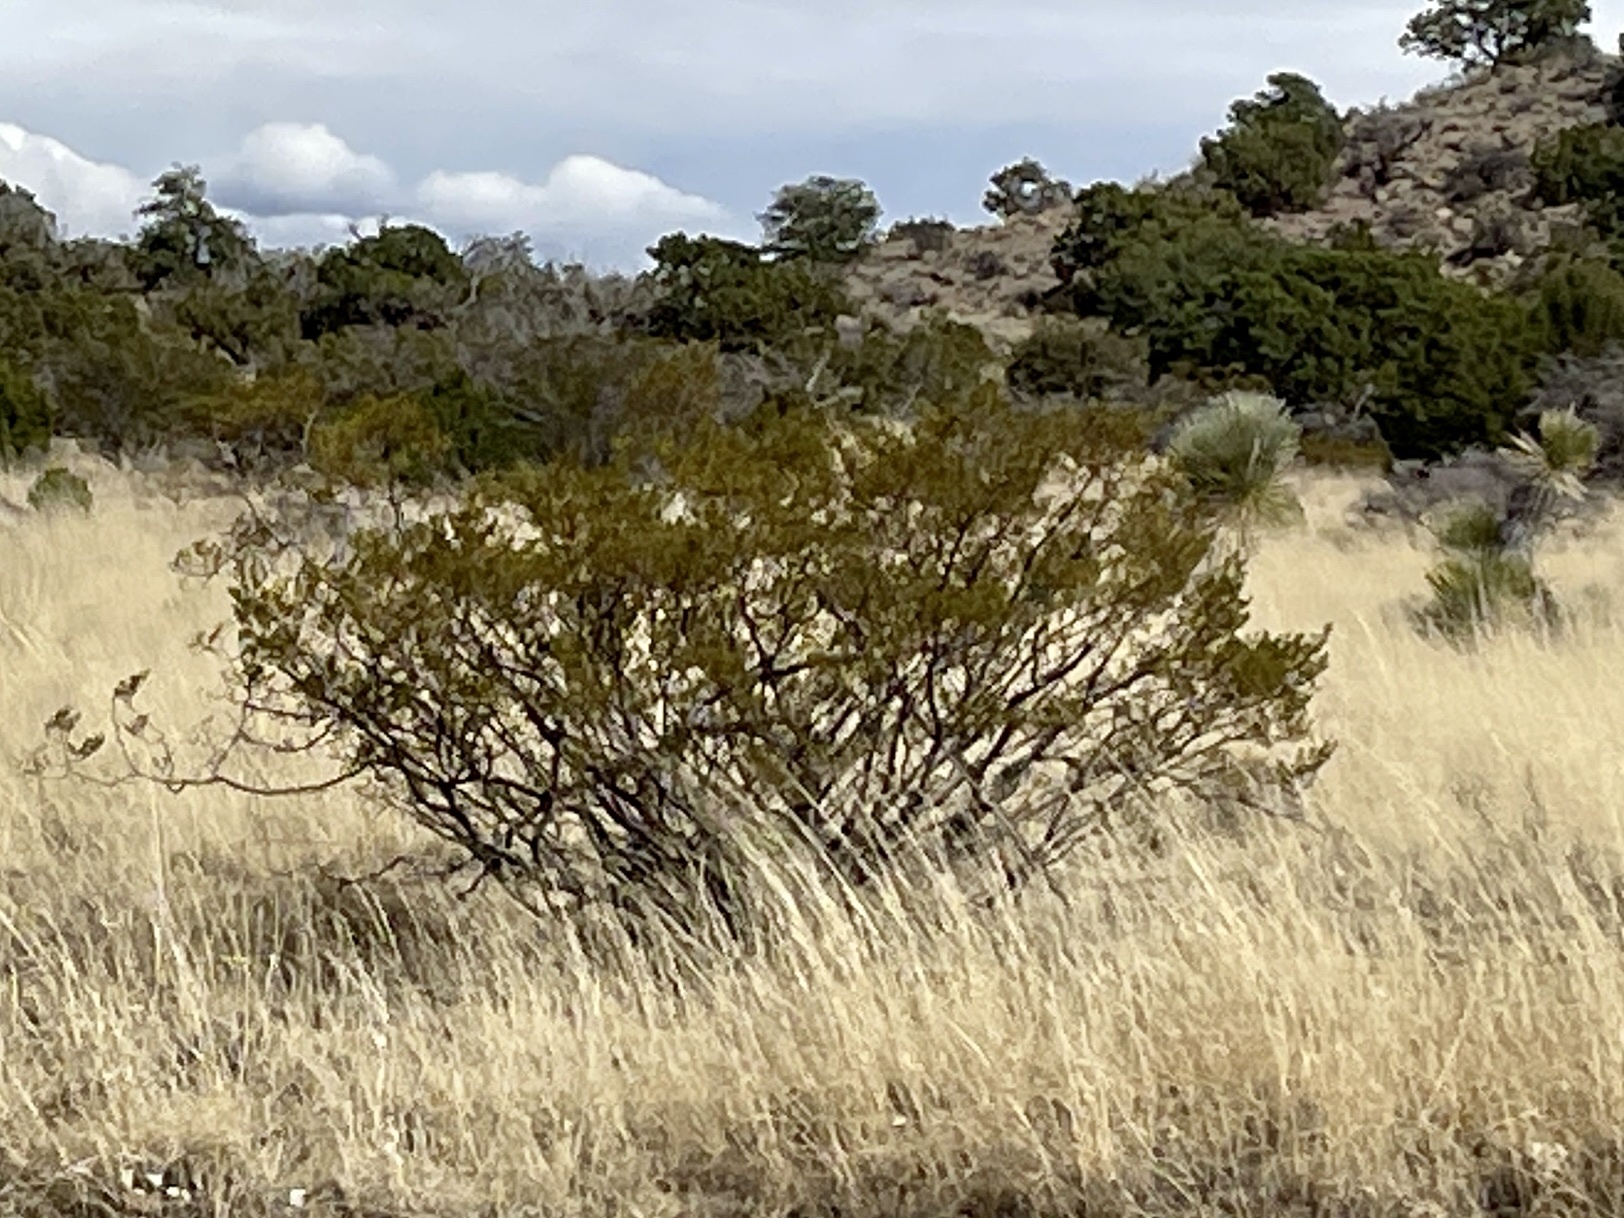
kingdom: Plantae
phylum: Tracheophyta
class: Magnoliopsida
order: Zygophyllales
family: Zygophyllaceae
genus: Larrea
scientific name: Larrea tridentata
